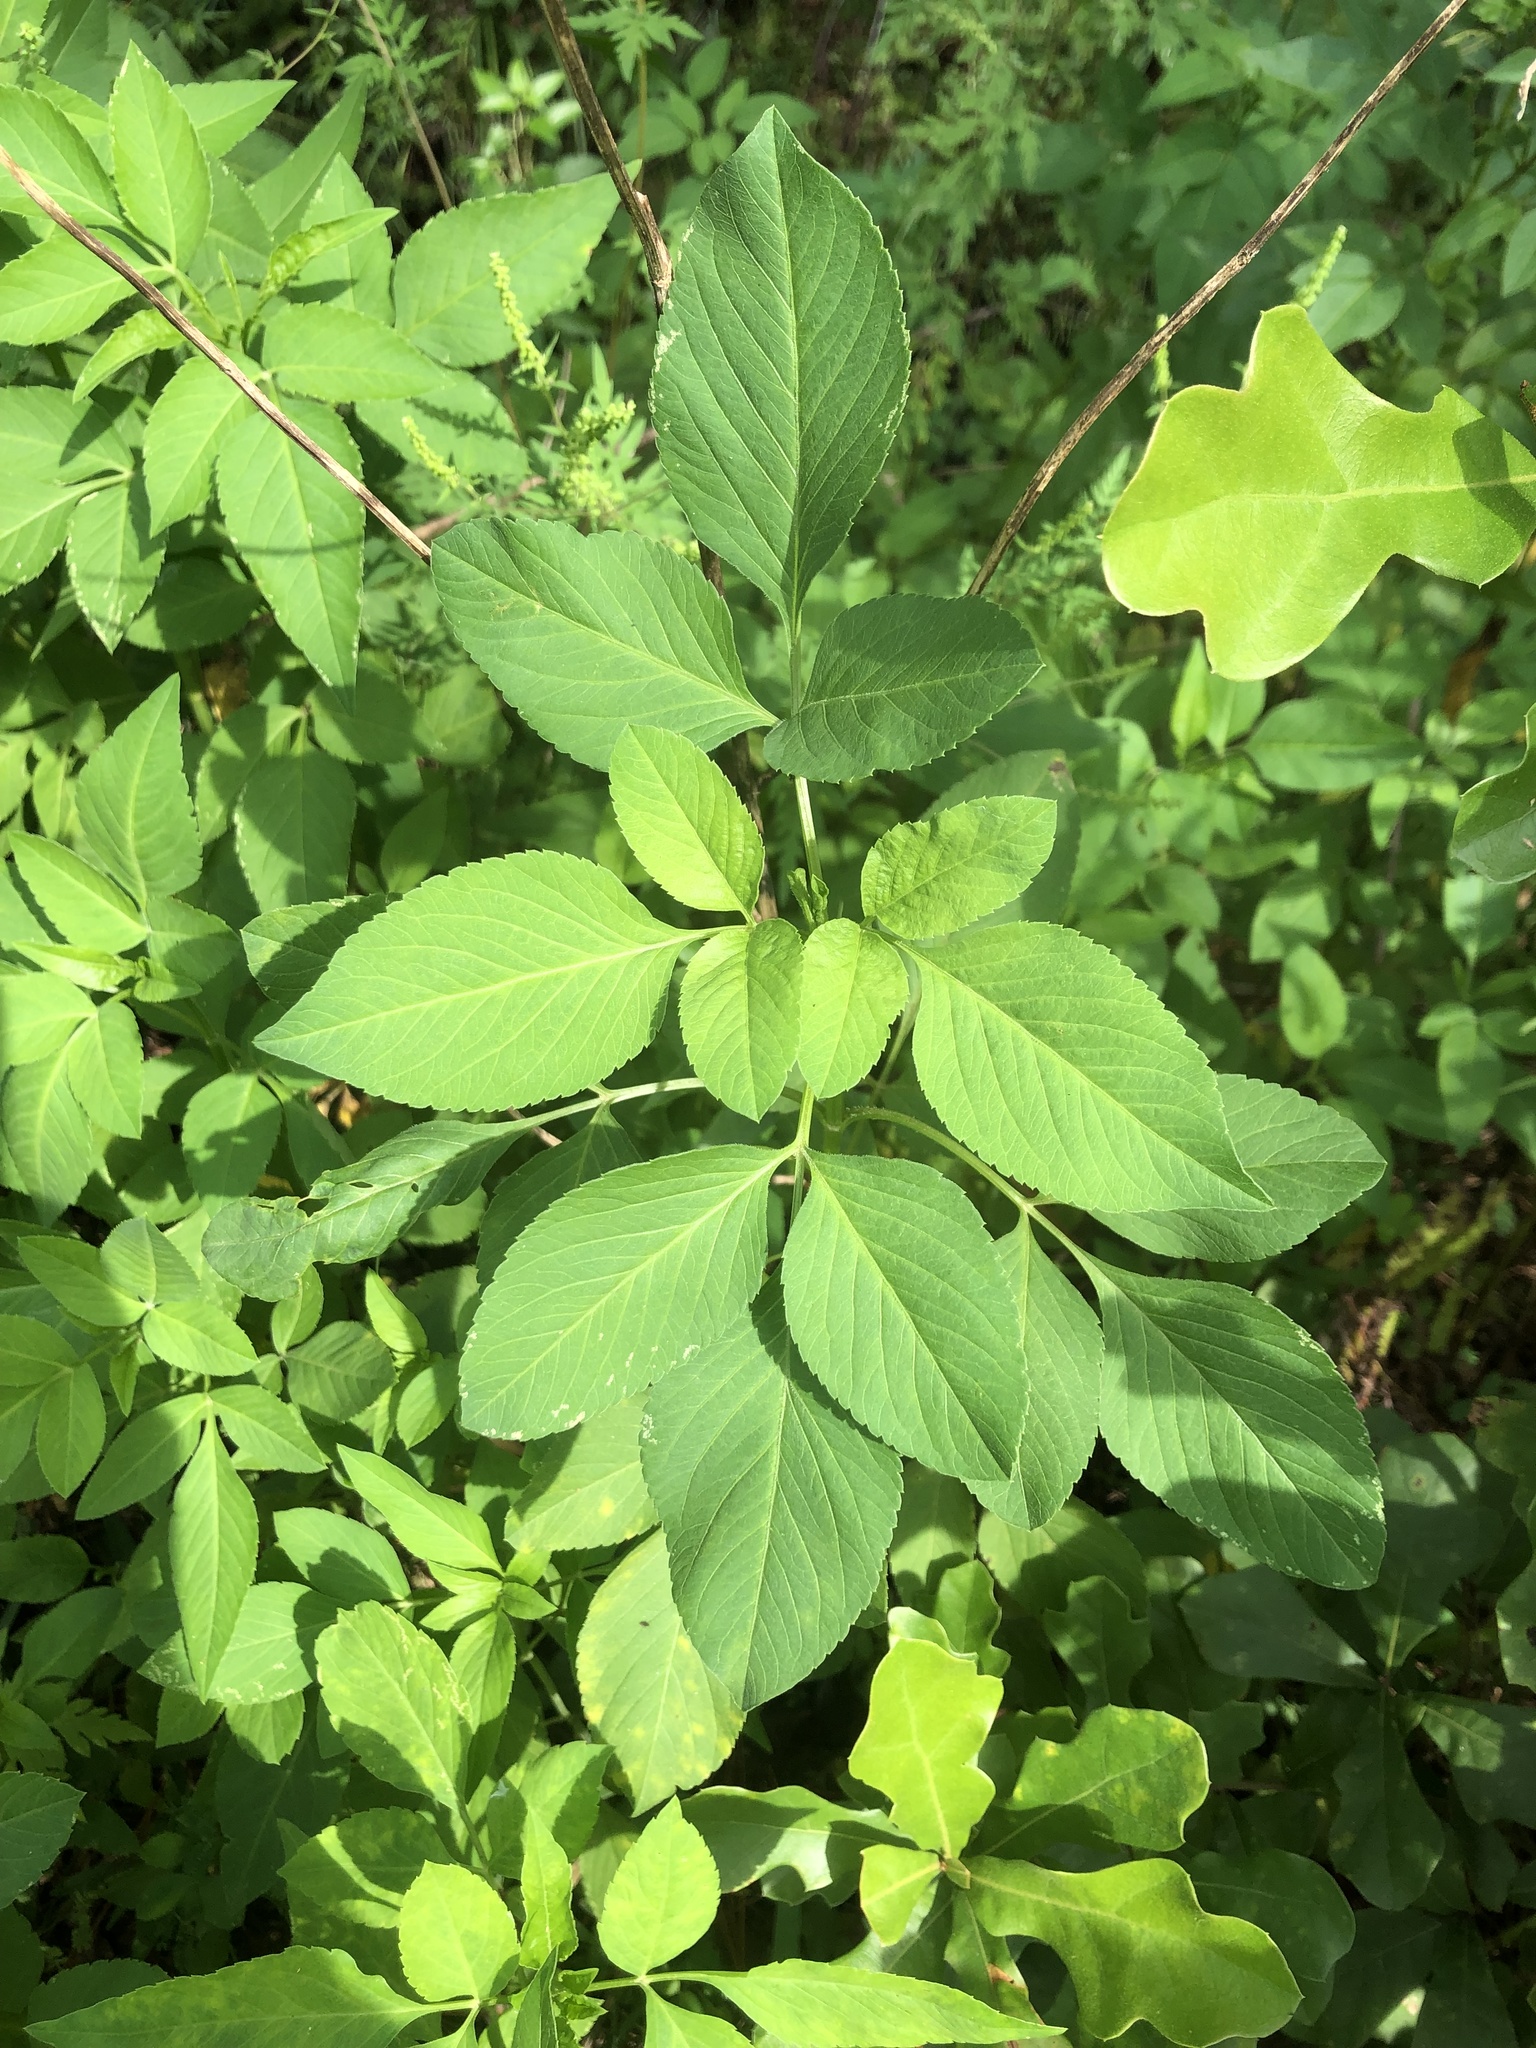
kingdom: Plantae
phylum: Tracheophyta
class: Magnoliopsida
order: Asterales
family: Asteraceae
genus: Bidens
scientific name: Bidens alba
